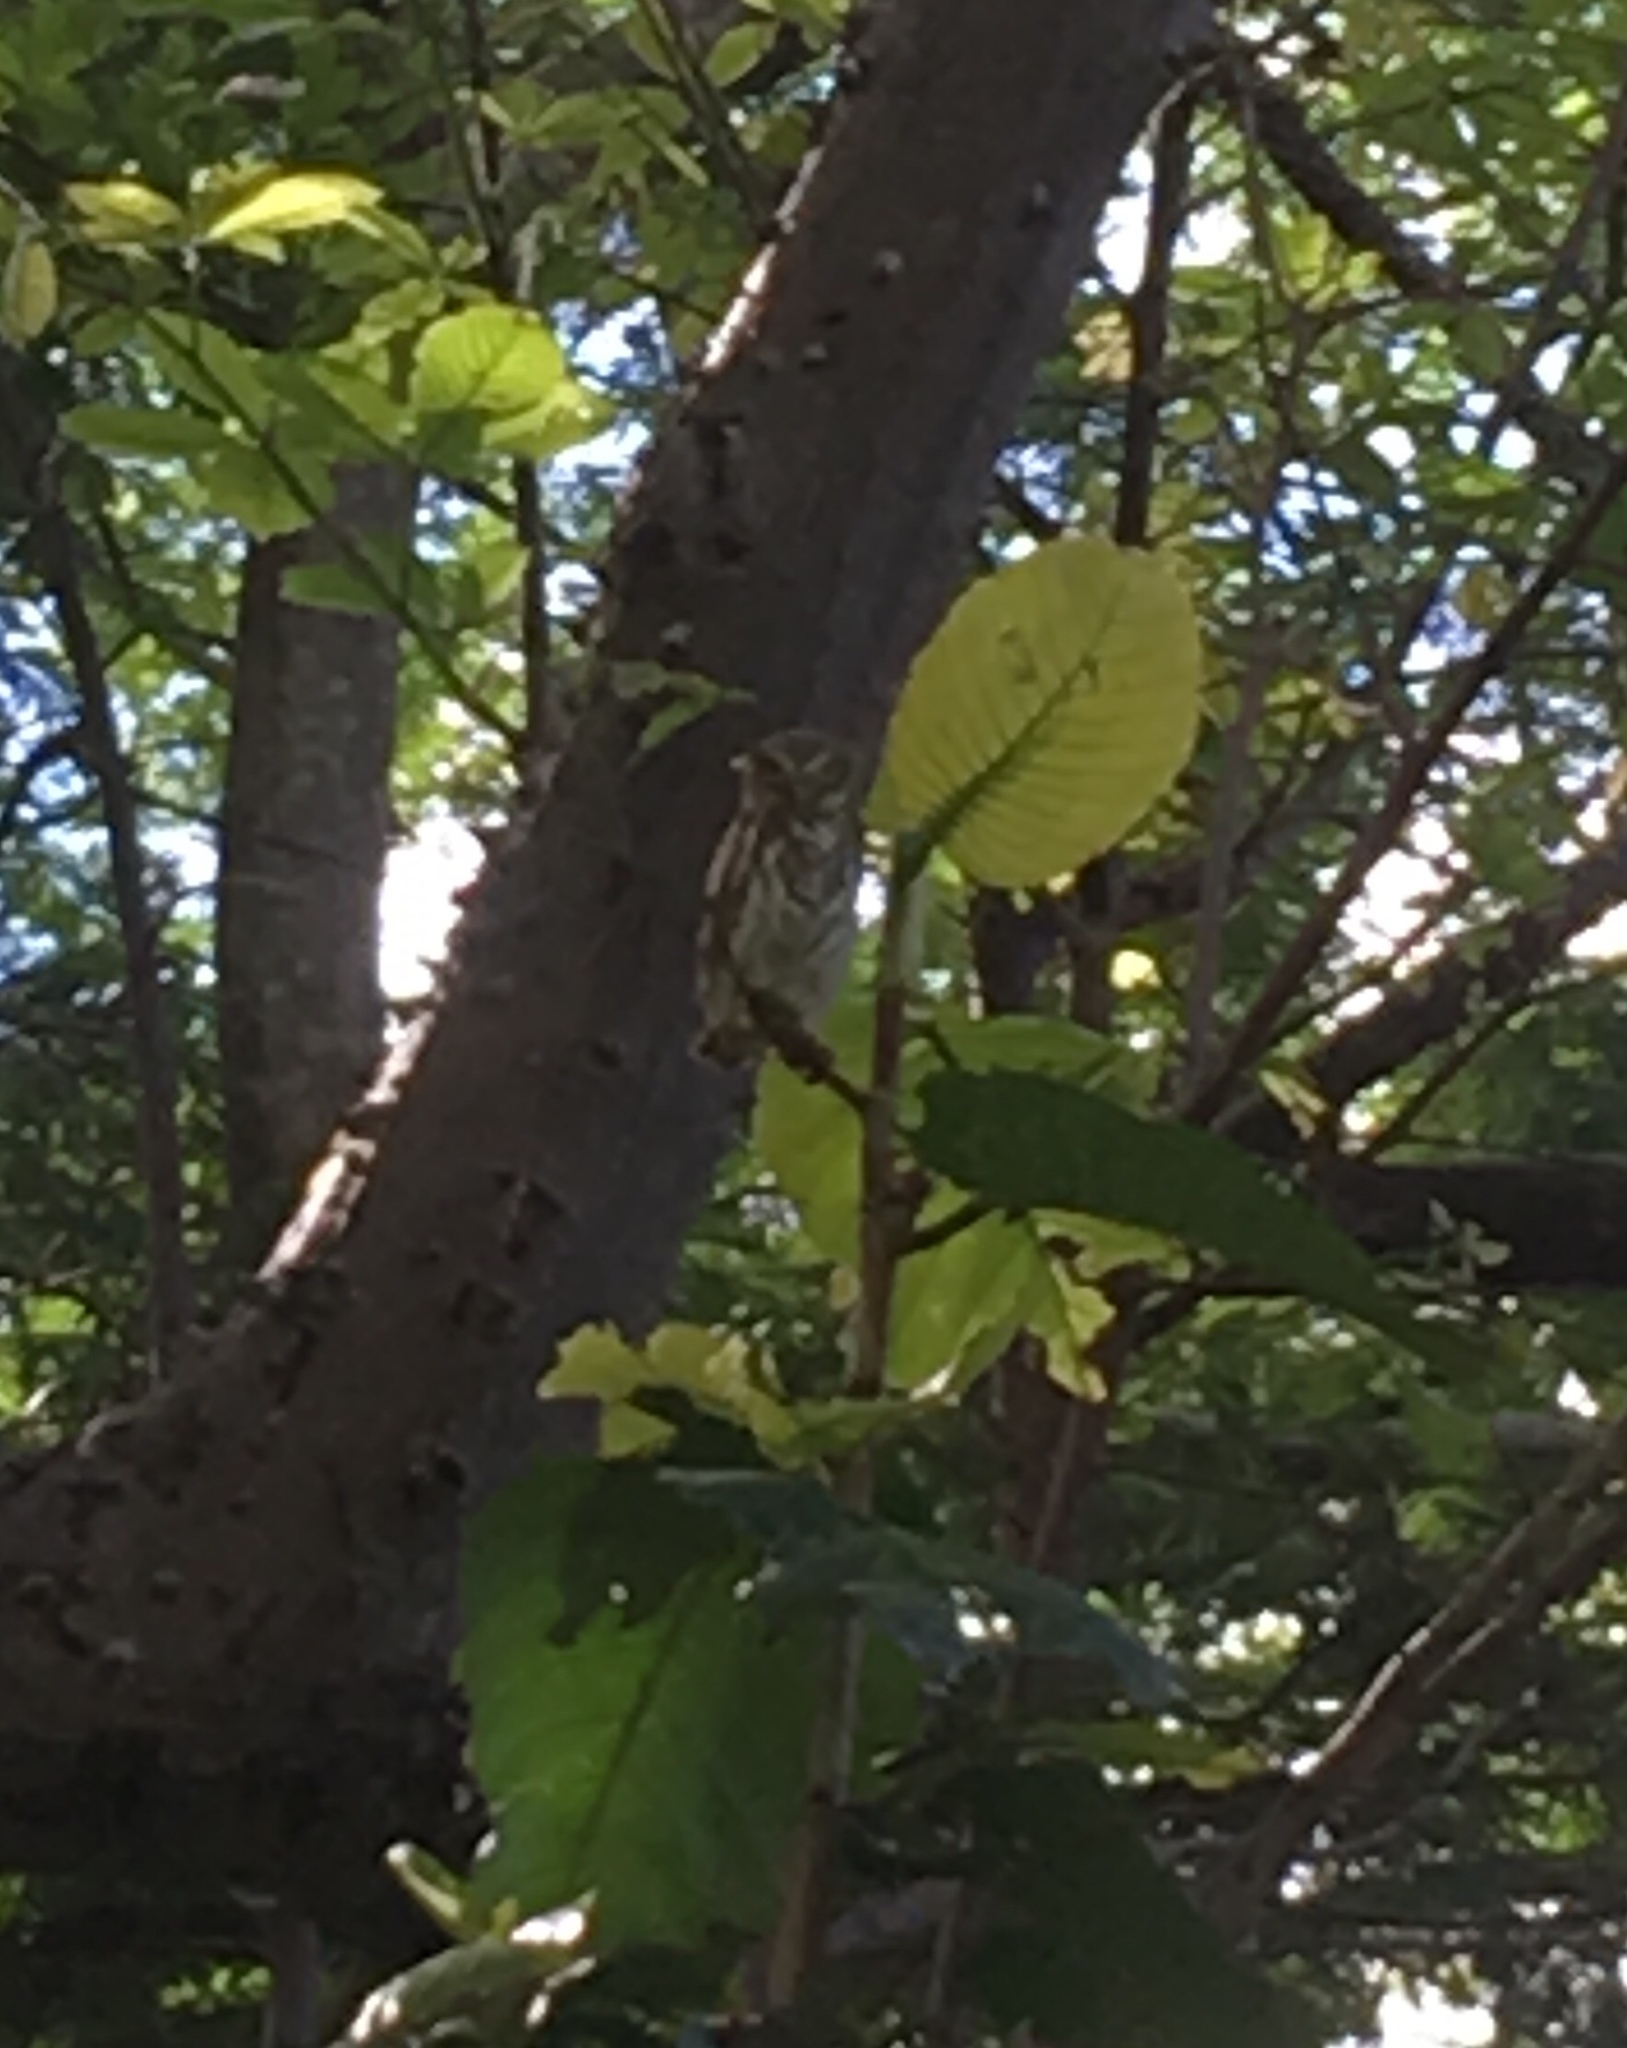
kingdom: Animalia
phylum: Chordata
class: Aves
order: Strigiformes
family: Strigidae
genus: Glaucidium
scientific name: Glaucidium brasilianum
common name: Ferruginous pygmy-owl
